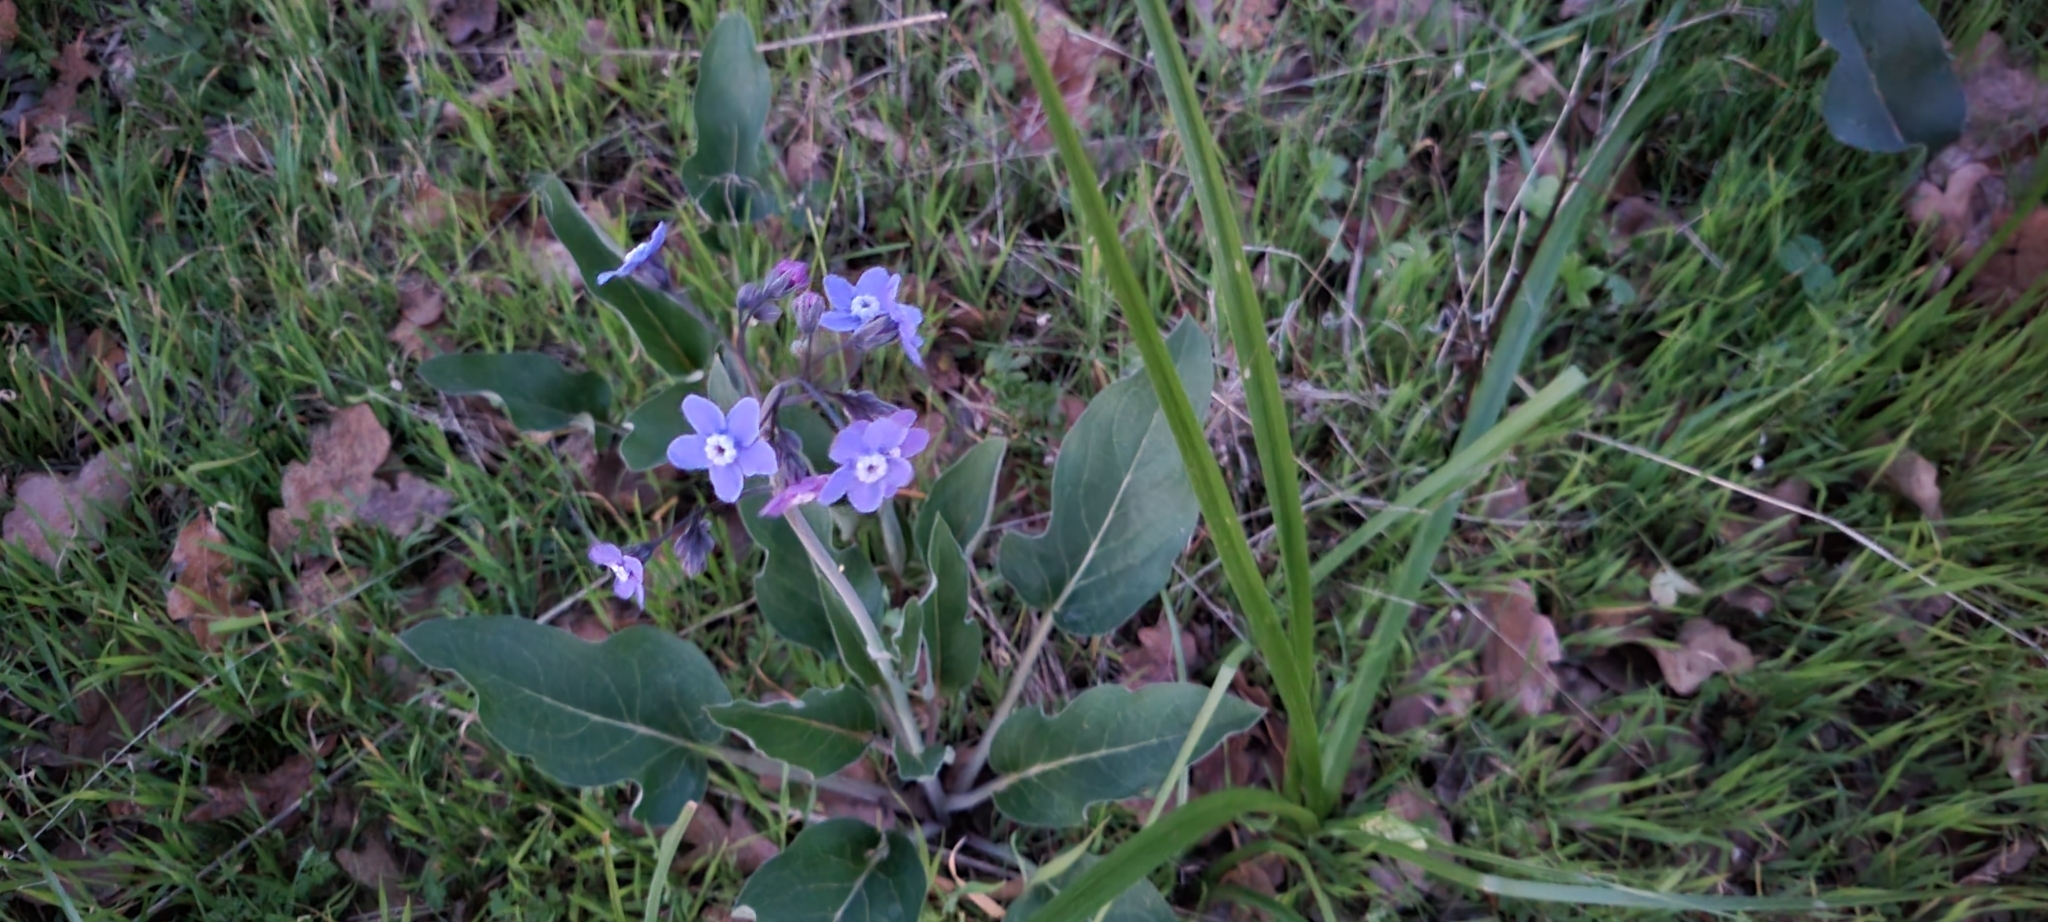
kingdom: Plantae
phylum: Tracheophyta
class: Magnoliopsida
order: Boraginales
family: Boraginaceae
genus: Adelinia
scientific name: Adelinia grande
